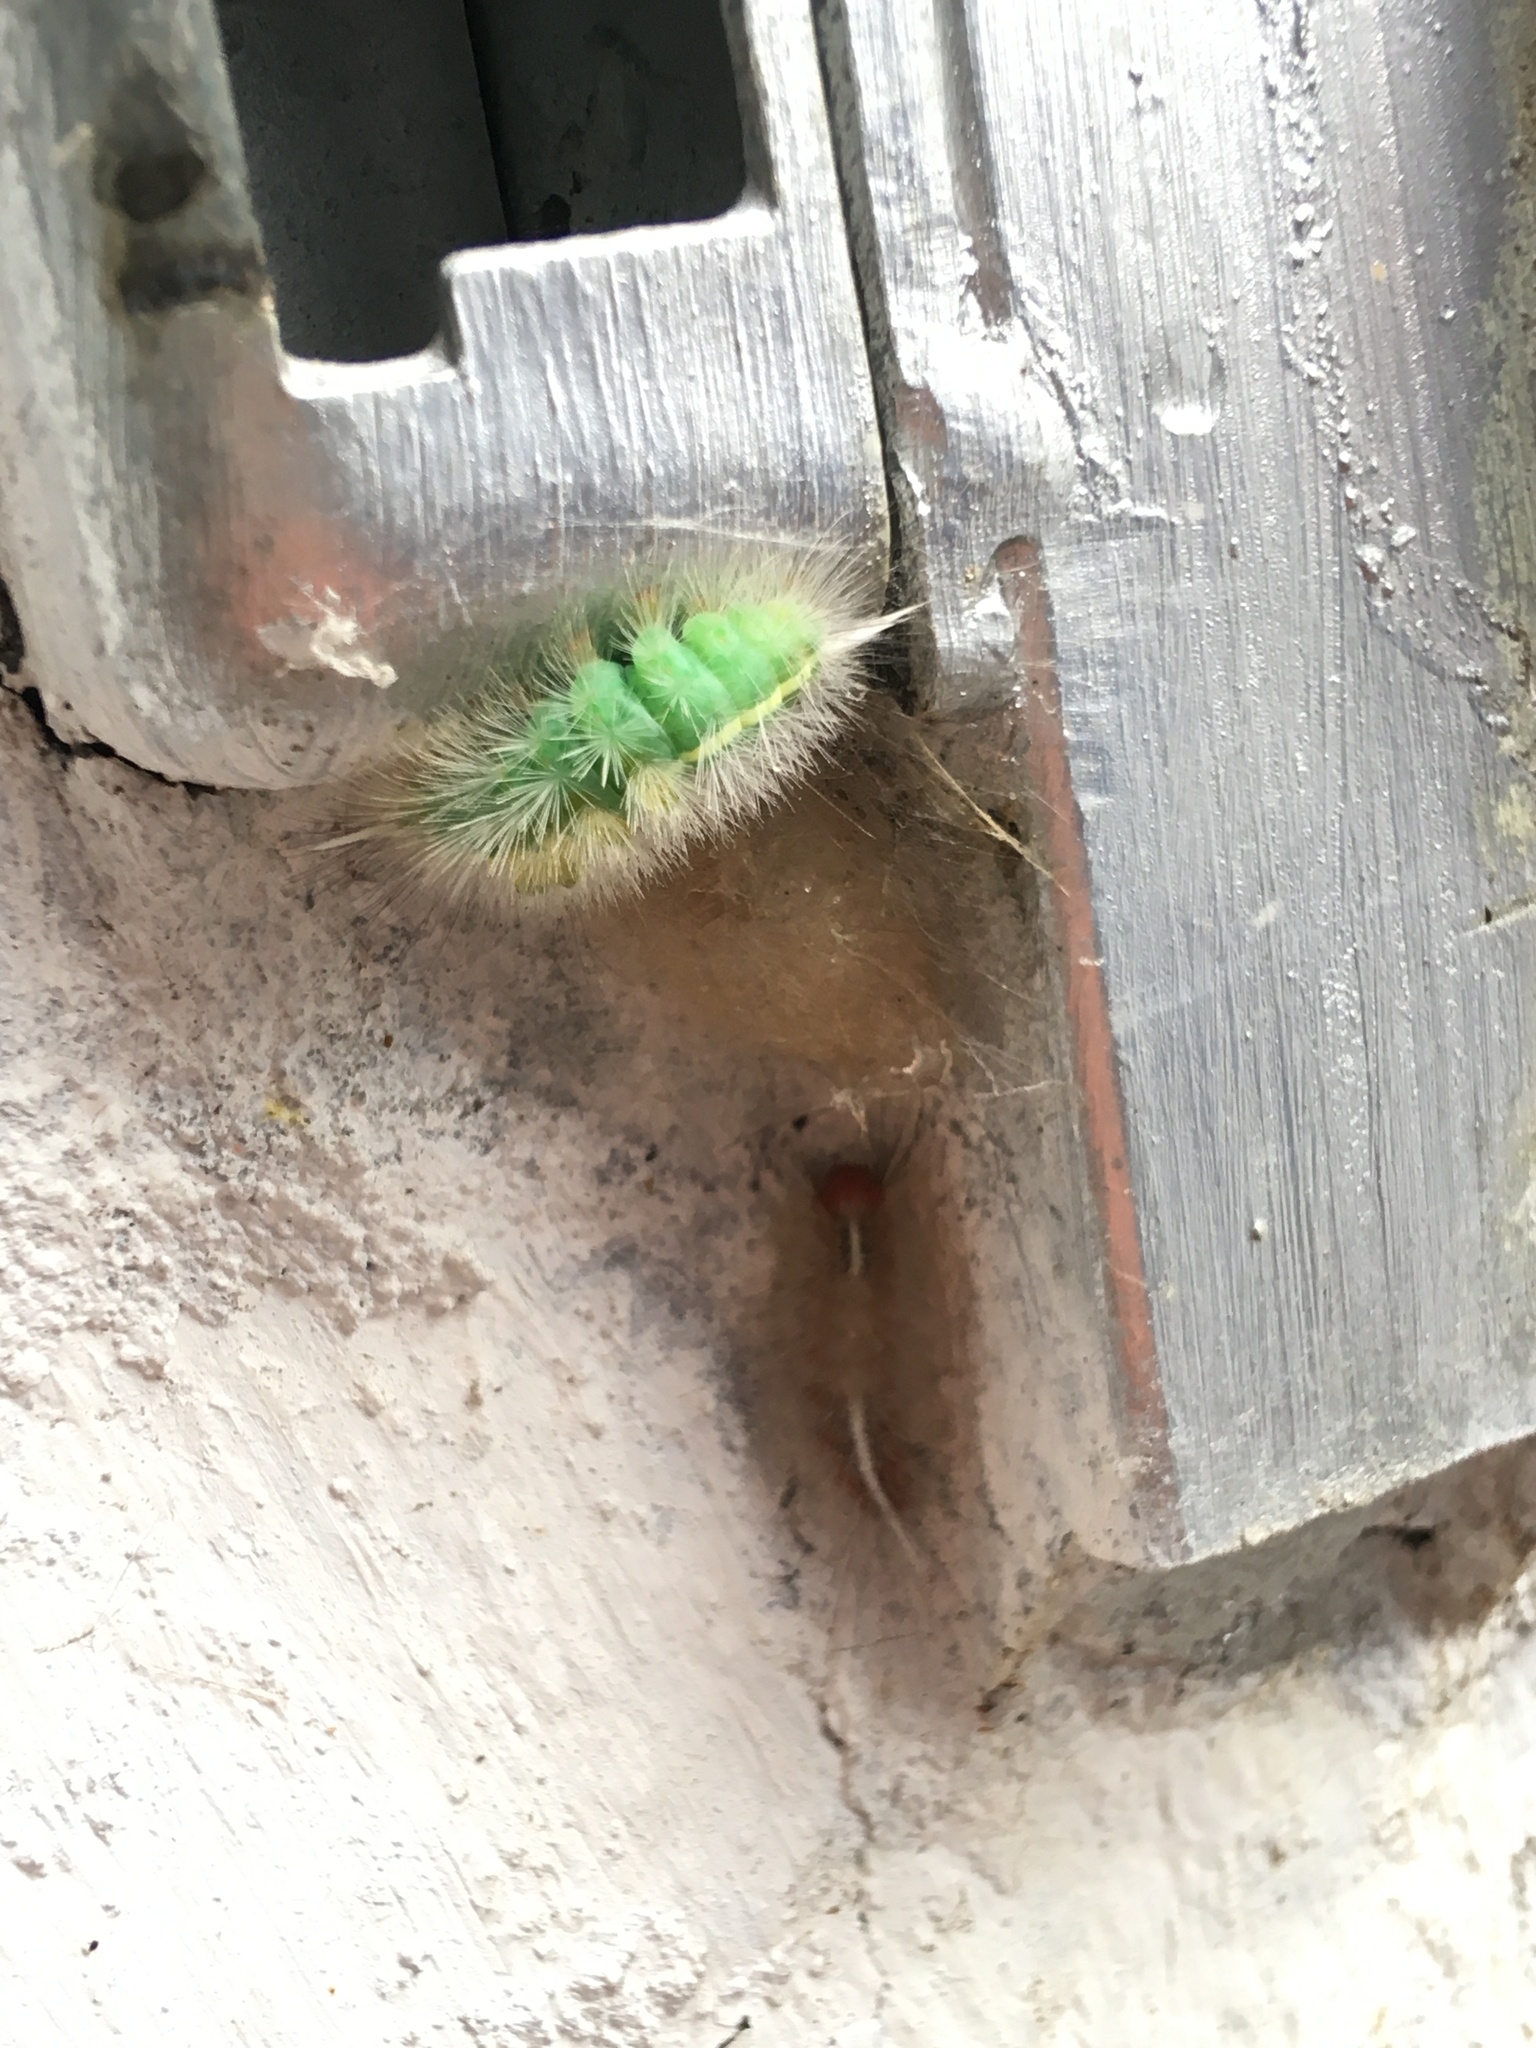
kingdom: Animalia
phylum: Arthropoda
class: Insecta
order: Lepidoptera
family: Erebidae
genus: Laelia
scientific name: Laelia
